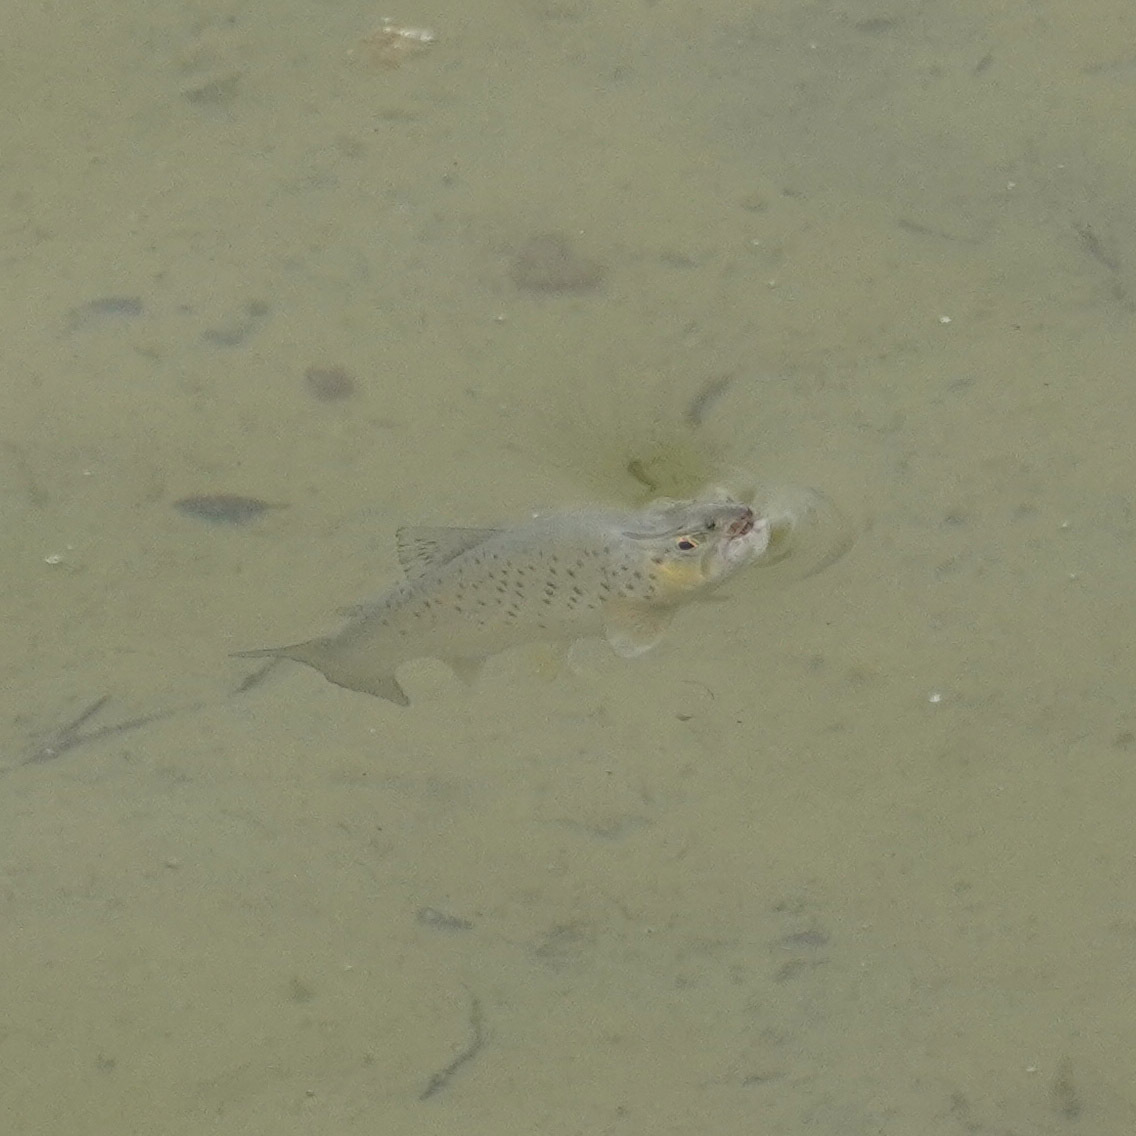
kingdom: Animalia
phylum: Chordata
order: Salmoniformes
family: Salmonidae
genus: Salmo
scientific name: Salmo trutta
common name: Brown trout
